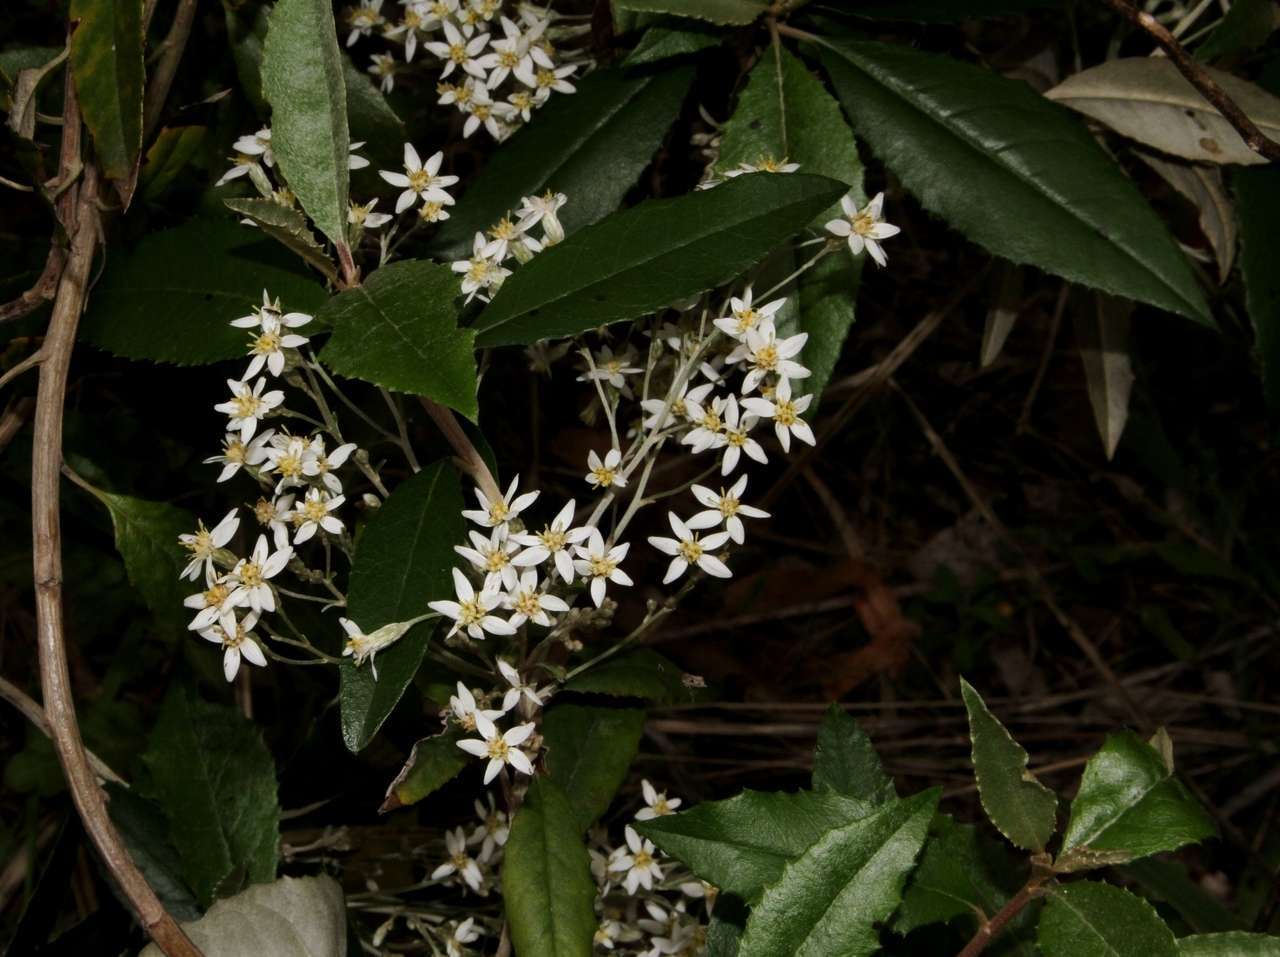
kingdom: Plantae
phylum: Tracheophyta
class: Magnoliopsida
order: Asterales
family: Asteraceae
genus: Olearia
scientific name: Olearia argophylla
